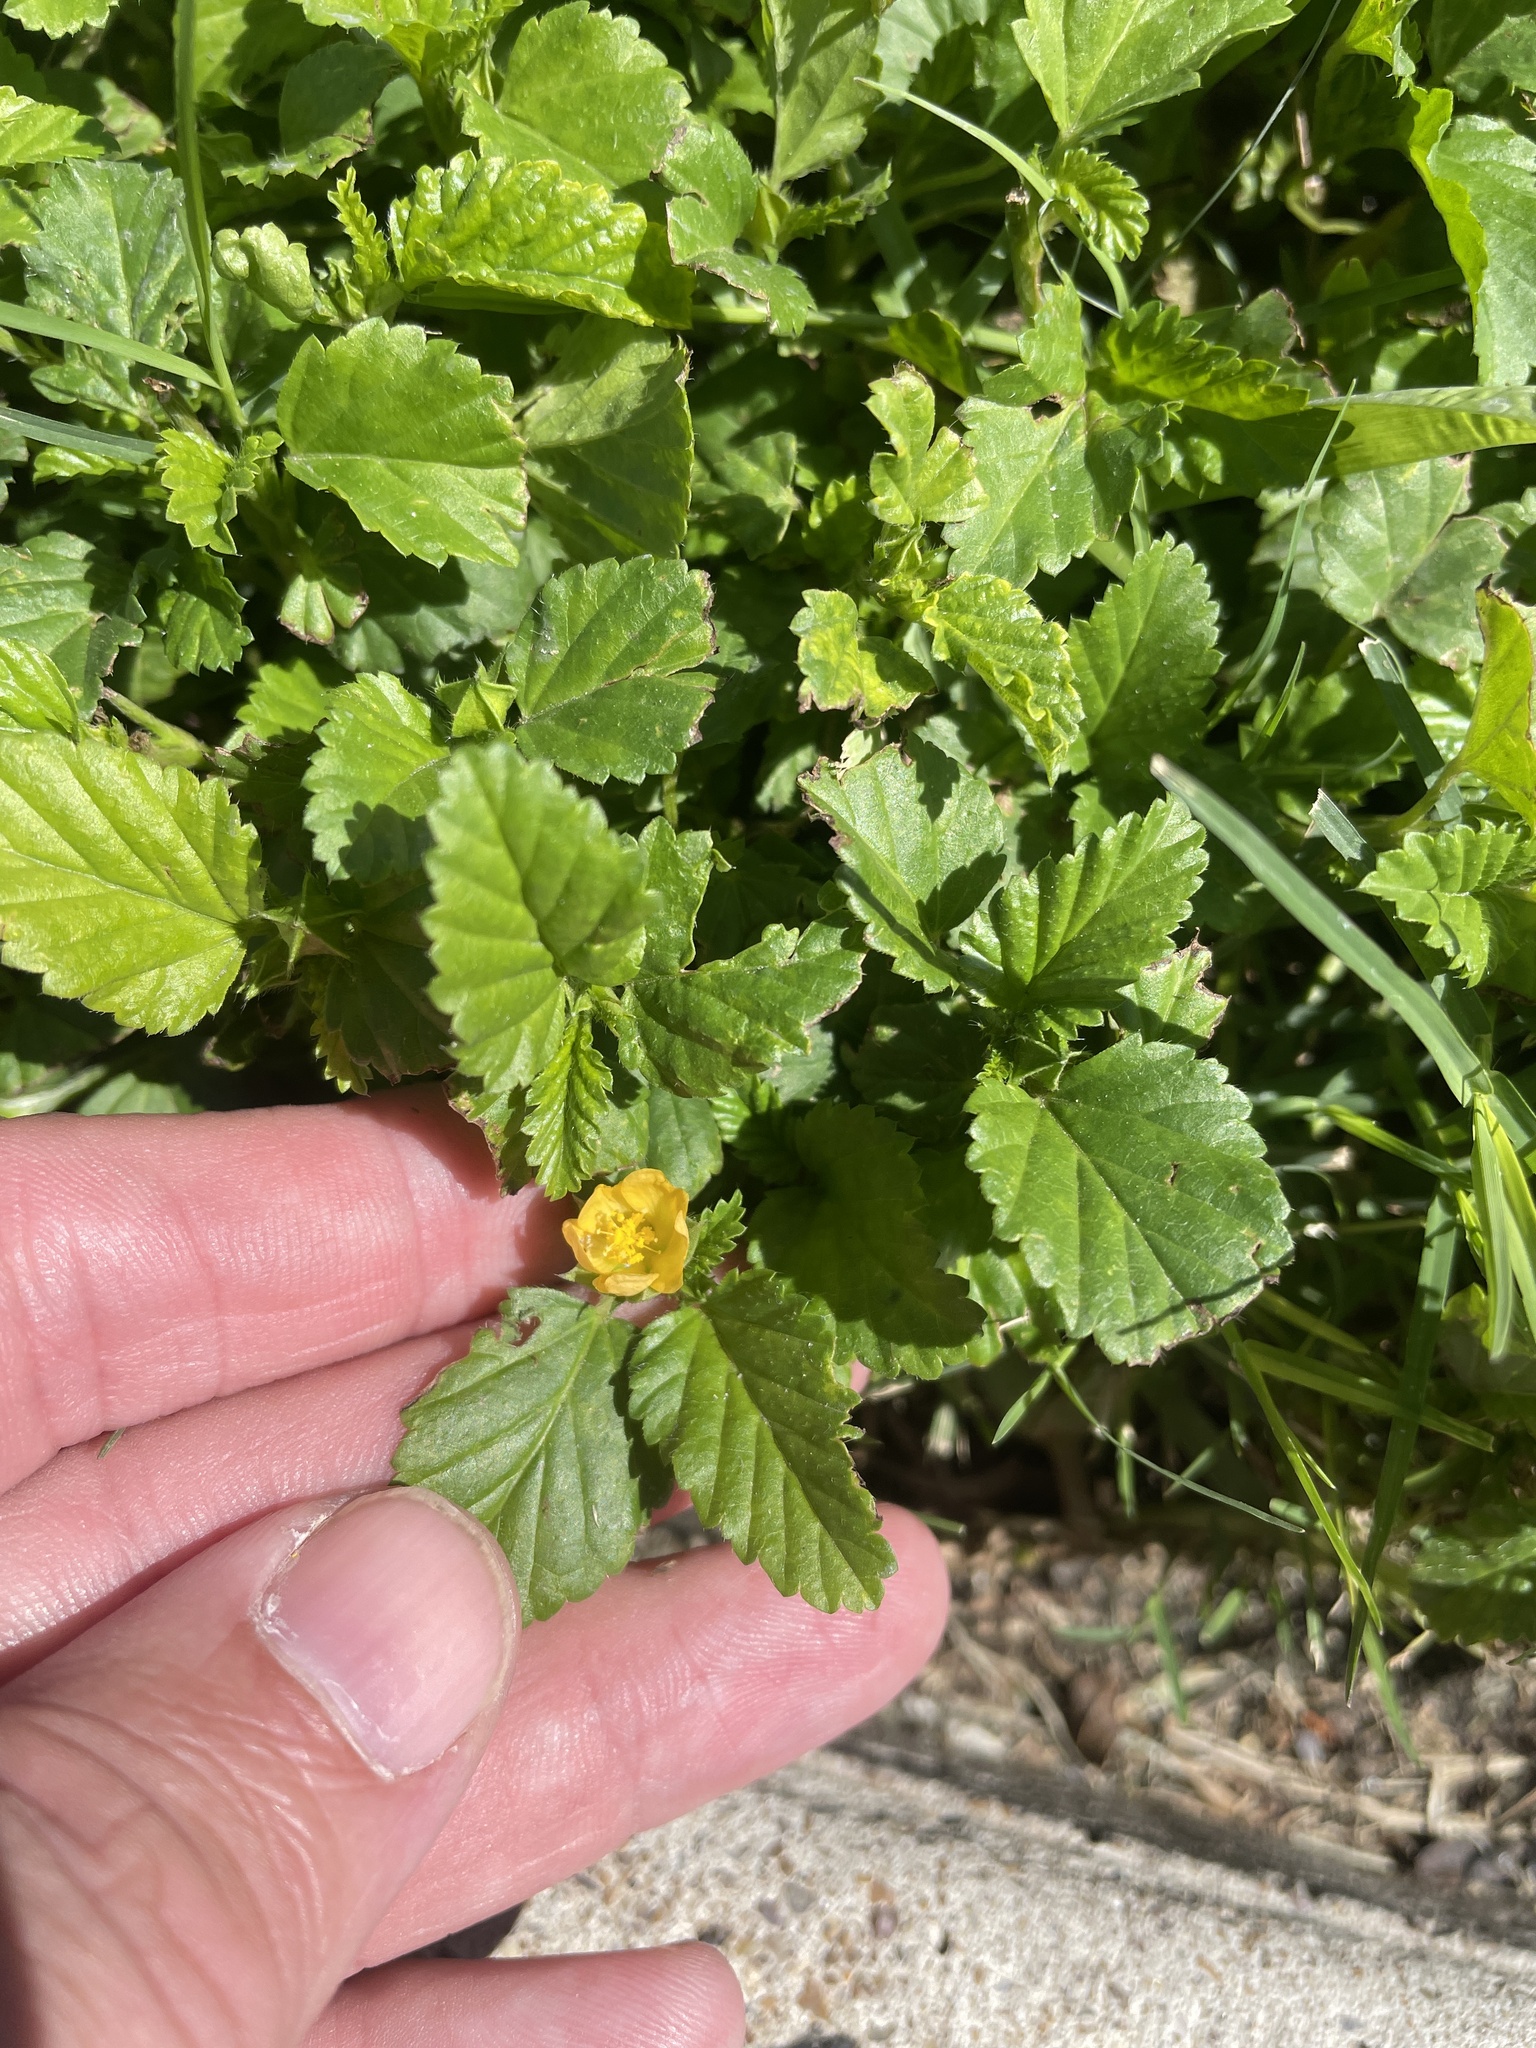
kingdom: Plantae
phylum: Tracheophyta
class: Magnoliopsida
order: Malvales
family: Malvaceae
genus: Malvastrum
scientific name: Malvastrum coromandelianum
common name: Threelobe false mallow
